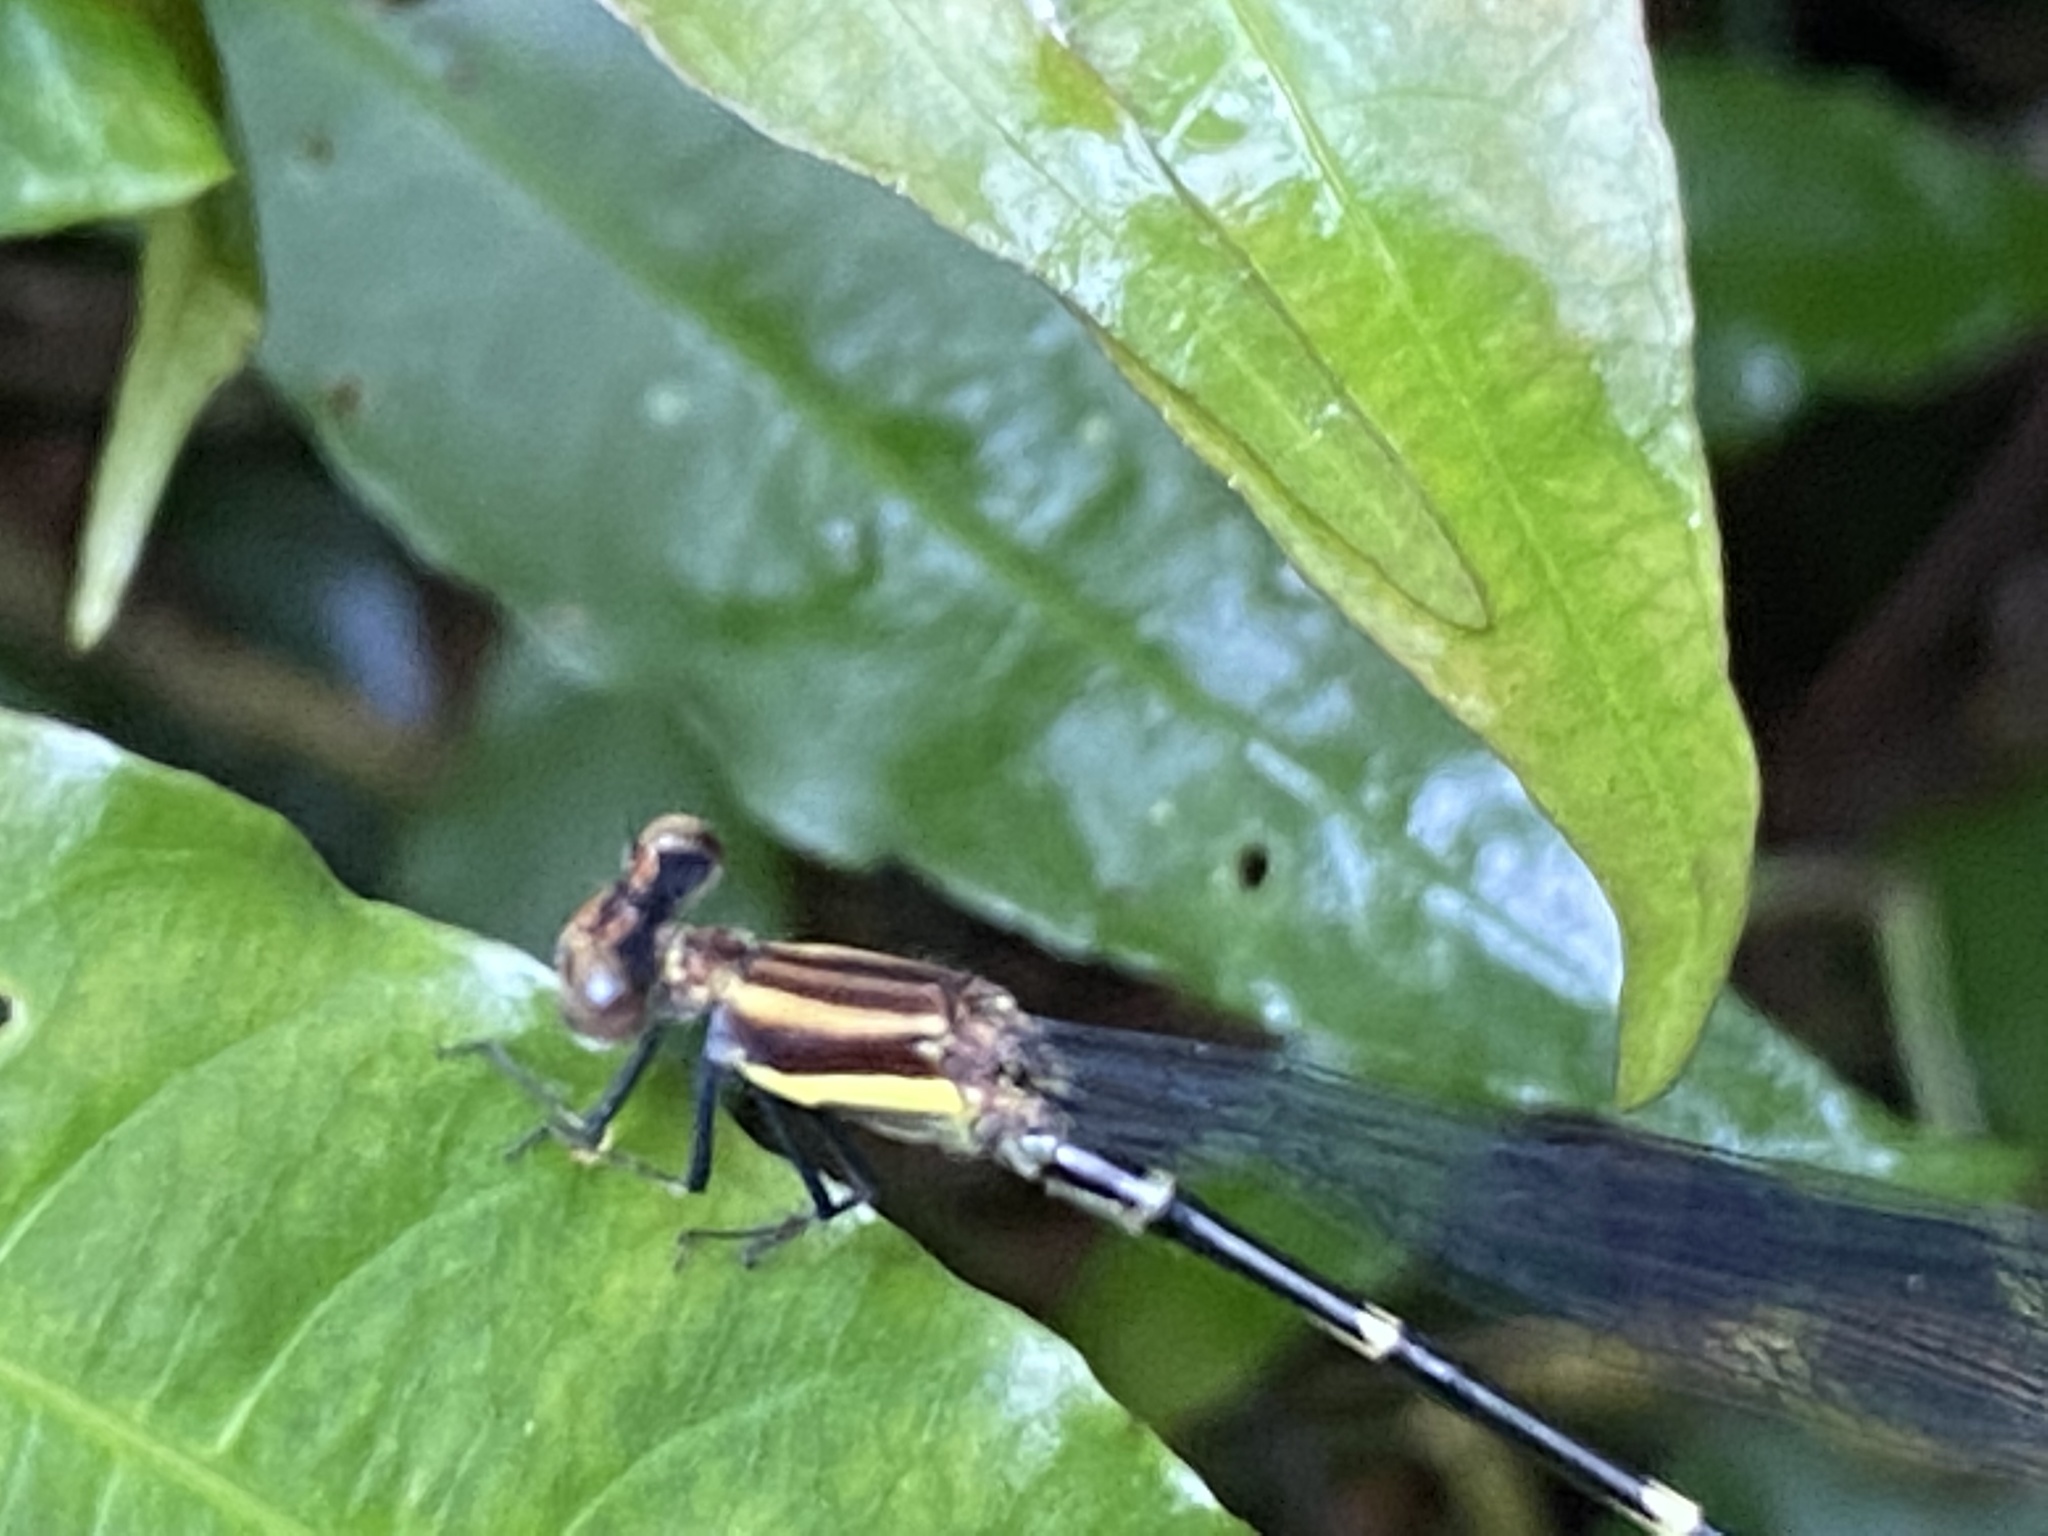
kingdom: Animalia
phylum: Arthropoda
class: Insecta
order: Odonata
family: Coenagrionidae
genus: Leptagrion
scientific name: Leptagrion macrurum
